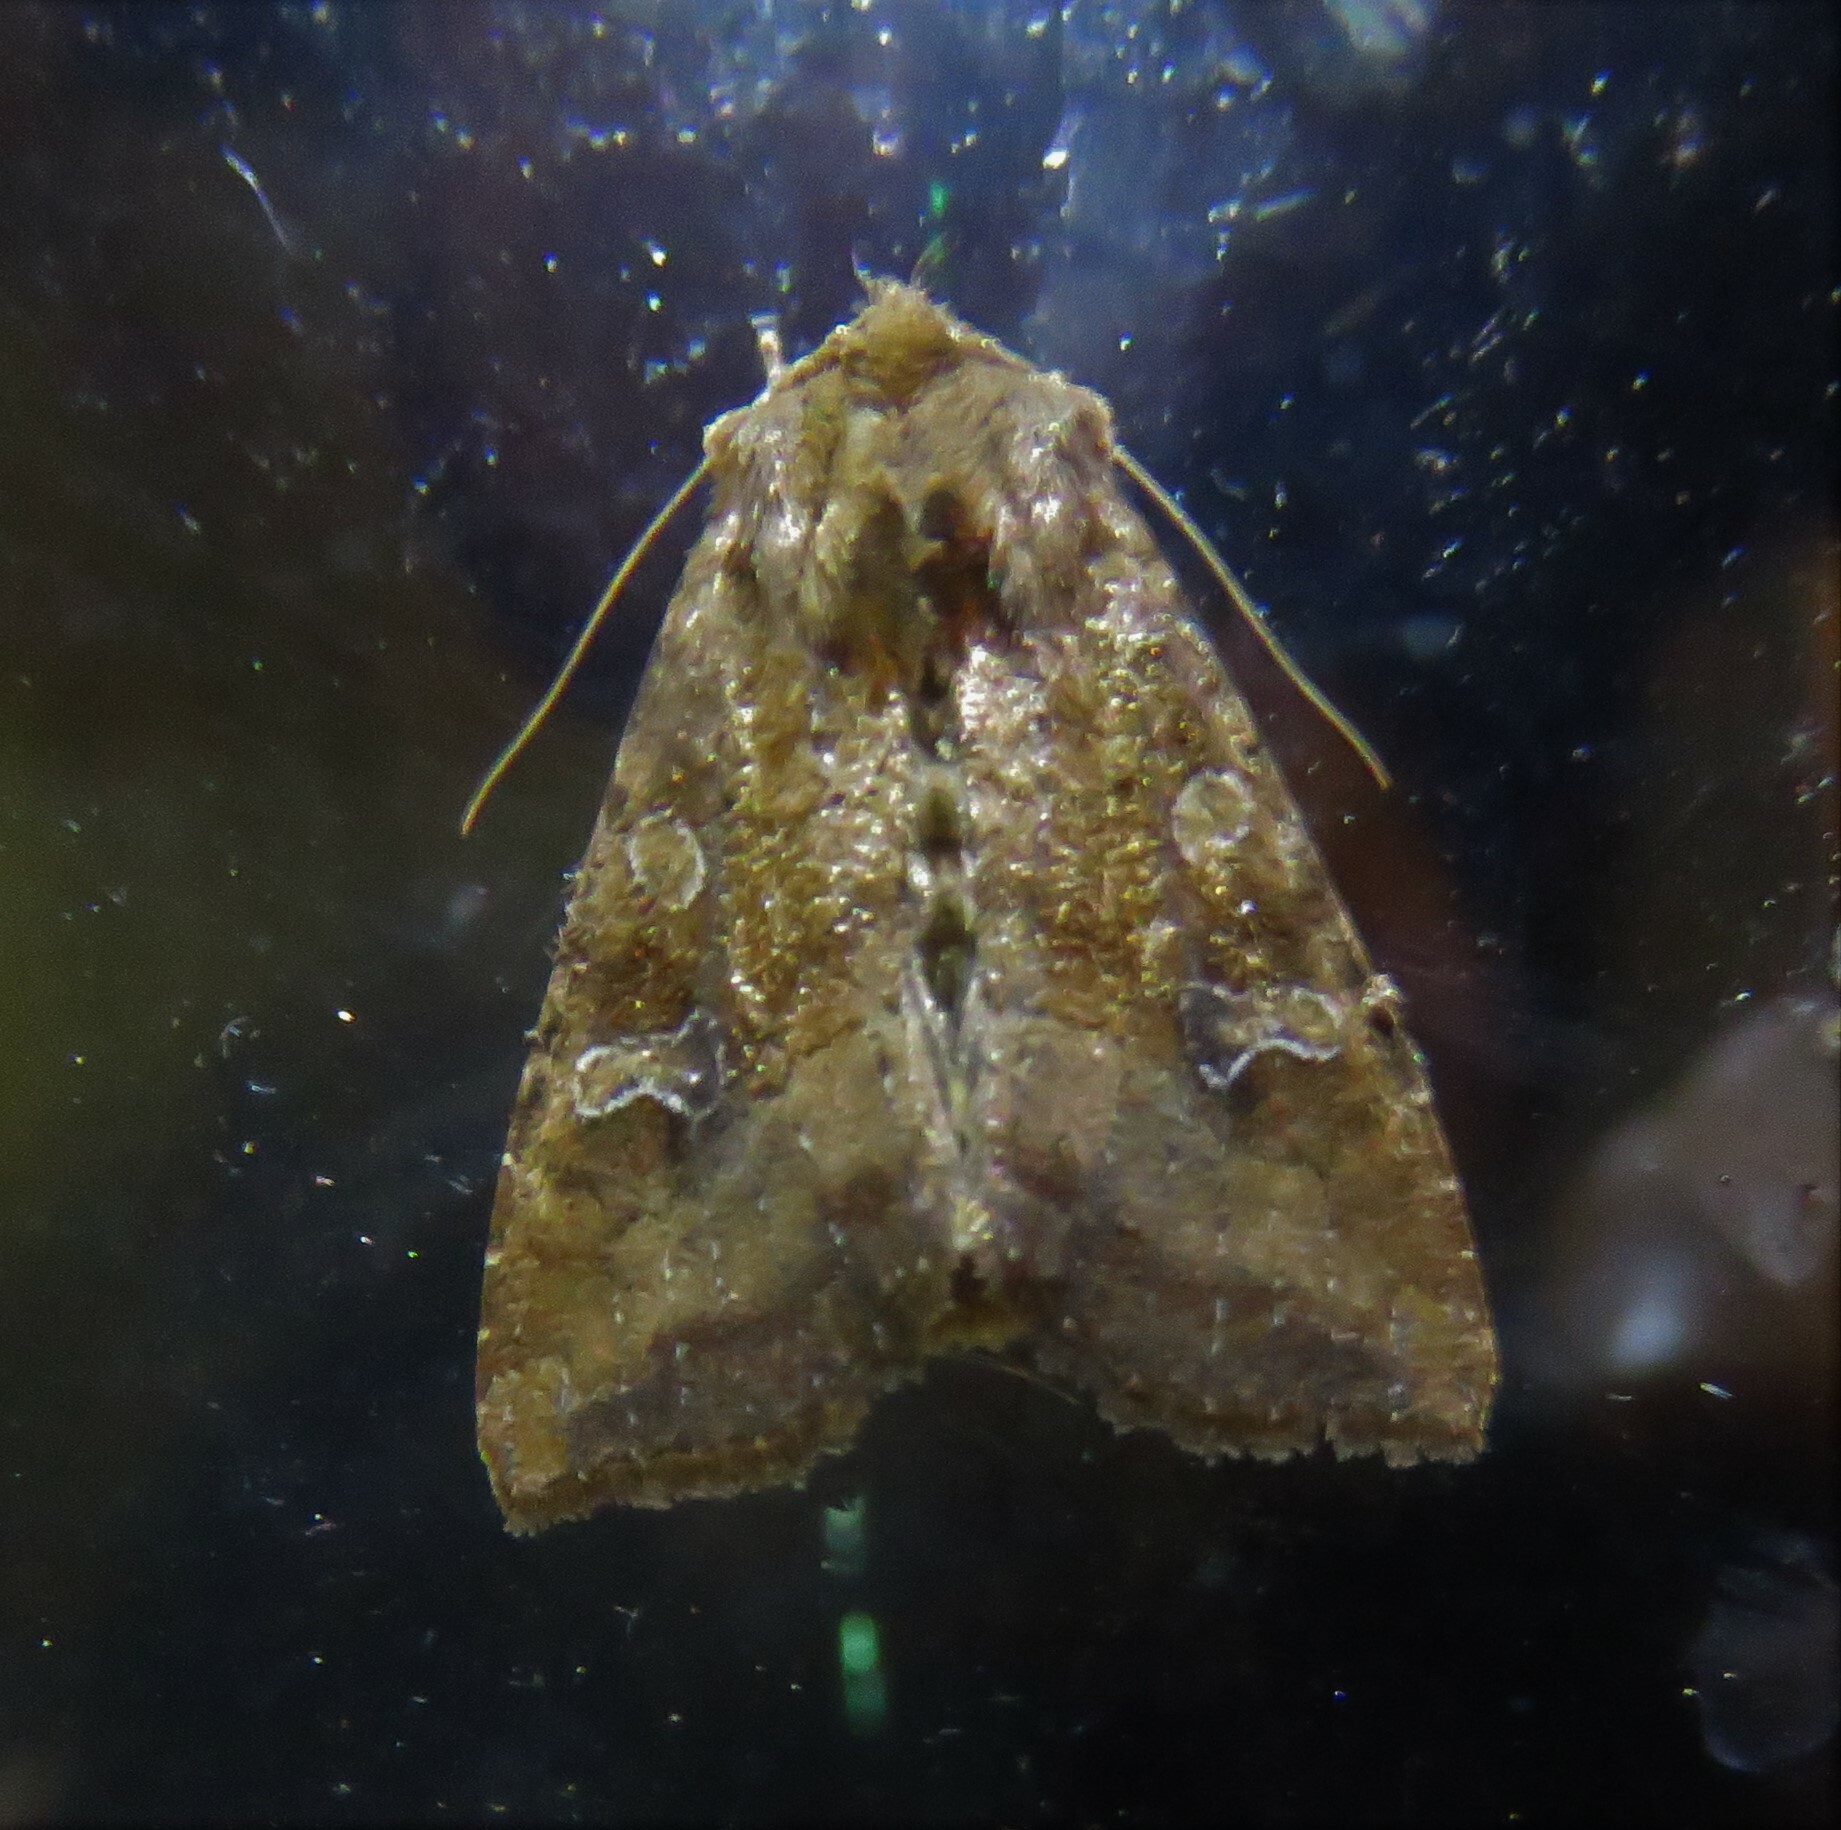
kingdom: Animalia
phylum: Arthropoda
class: Insecta
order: Lepidoptera
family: Noctuidae
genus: Loscopia
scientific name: Loscopia velata
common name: Veiled ear moth
